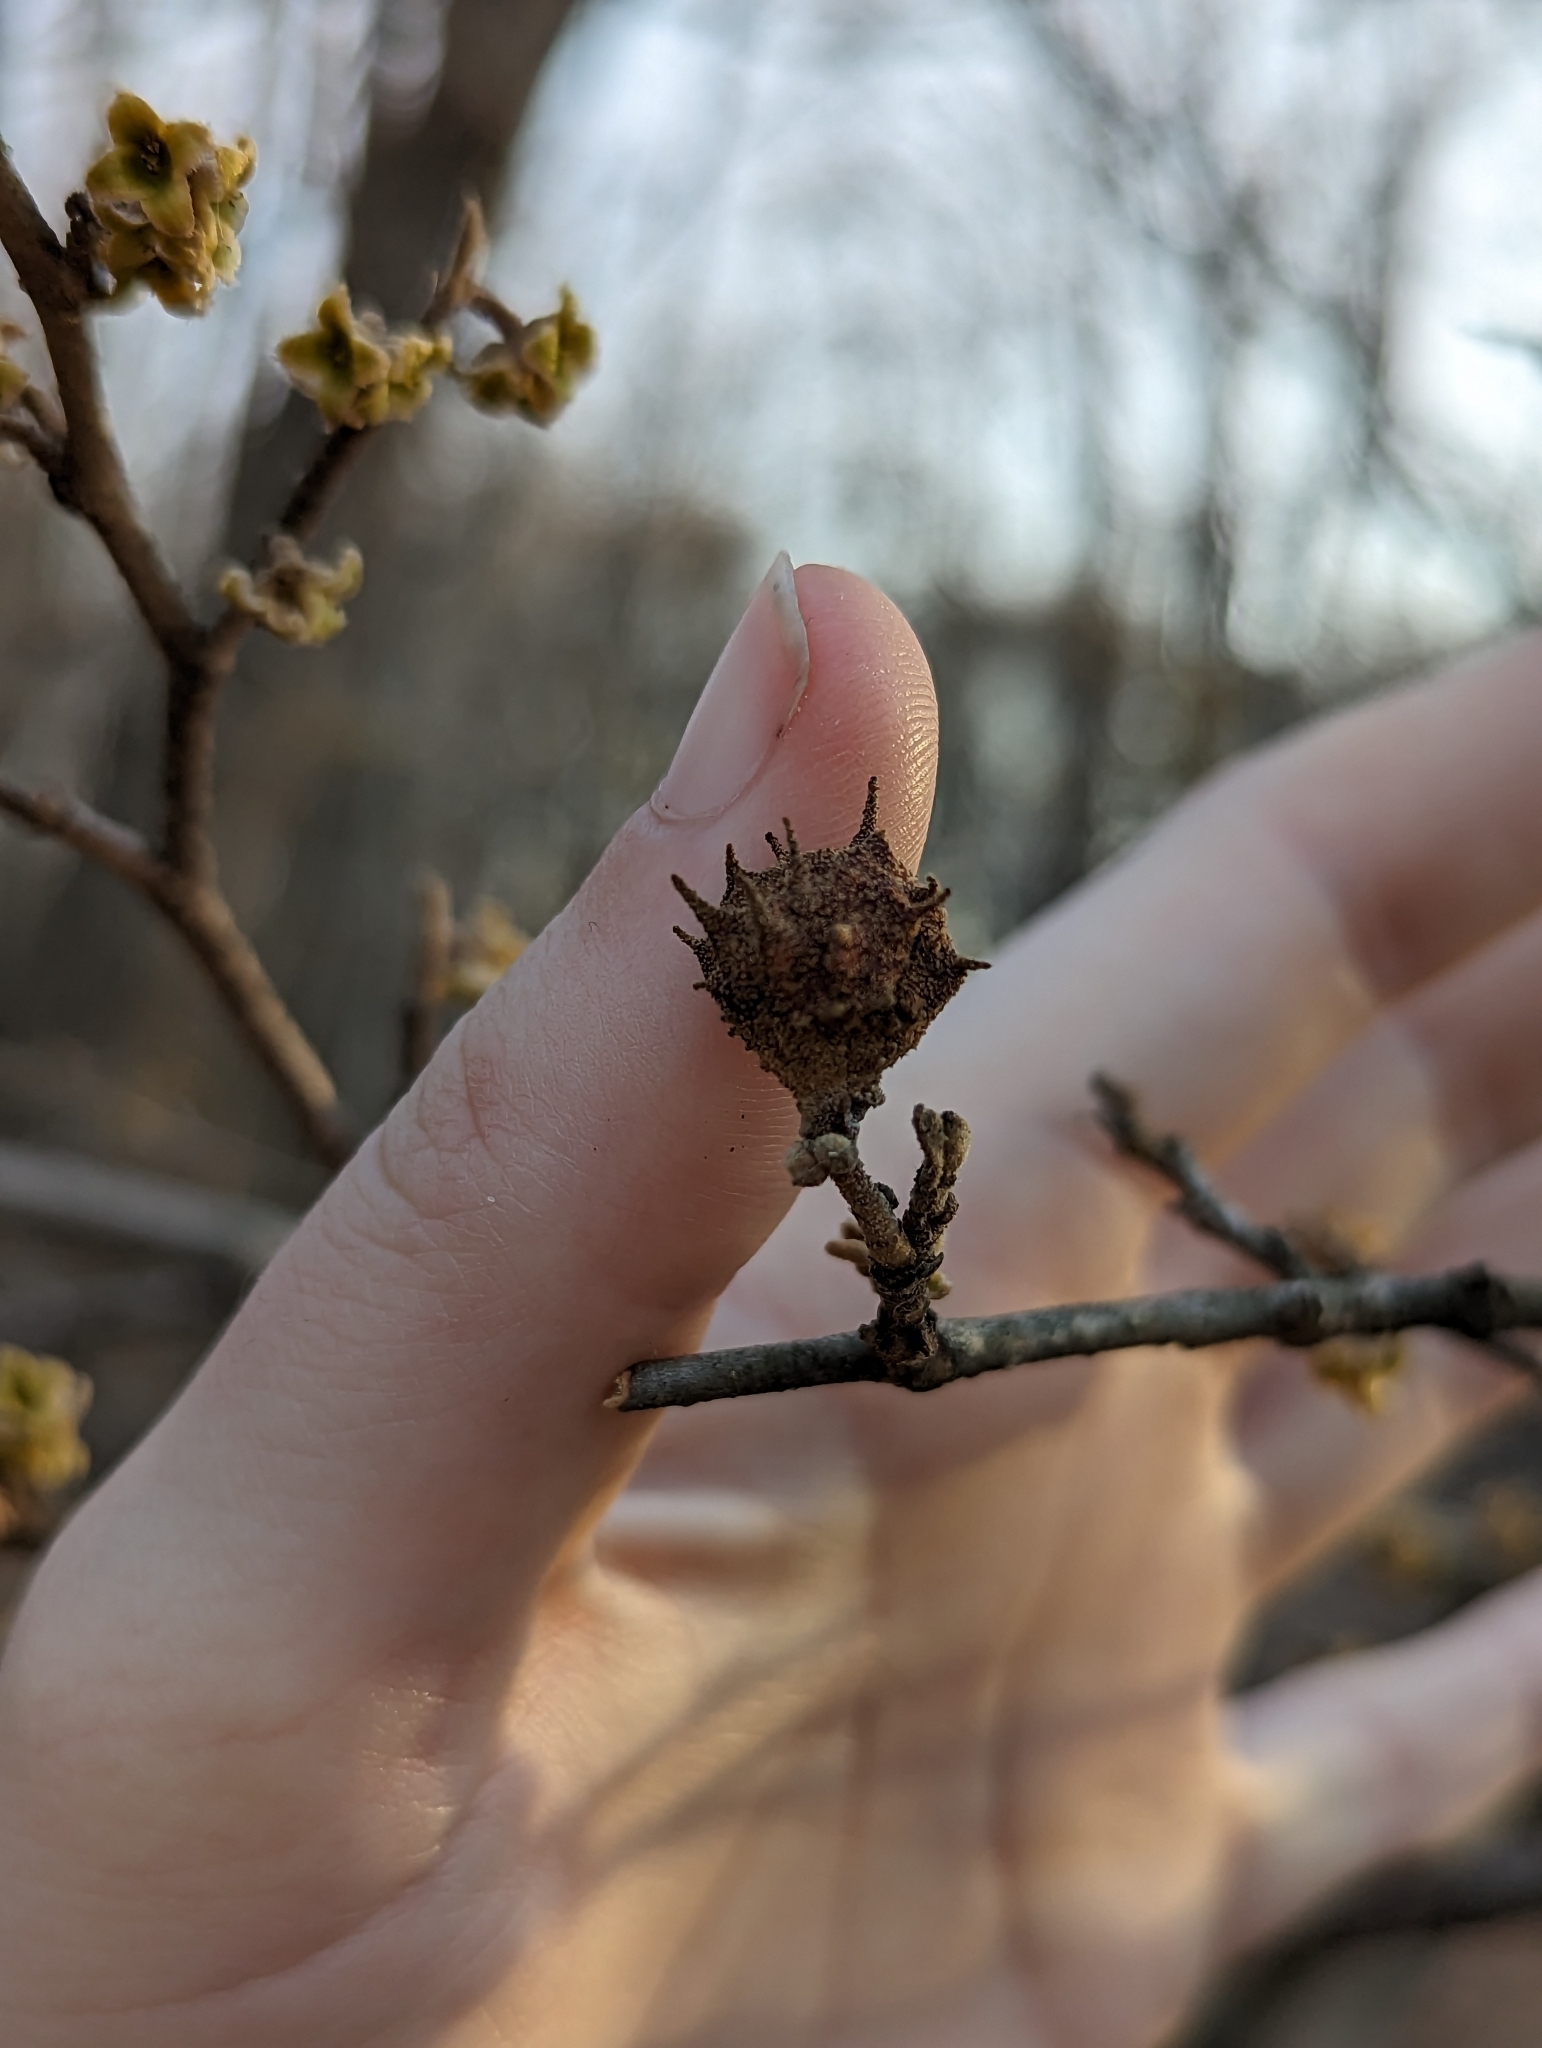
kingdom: Animalia
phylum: Arthropoda
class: Insecta
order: Hemiptera
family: Aphididae
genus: Hamamelistes
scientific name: Hamamelistes spinosus
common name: Witch hazel gall aphid
